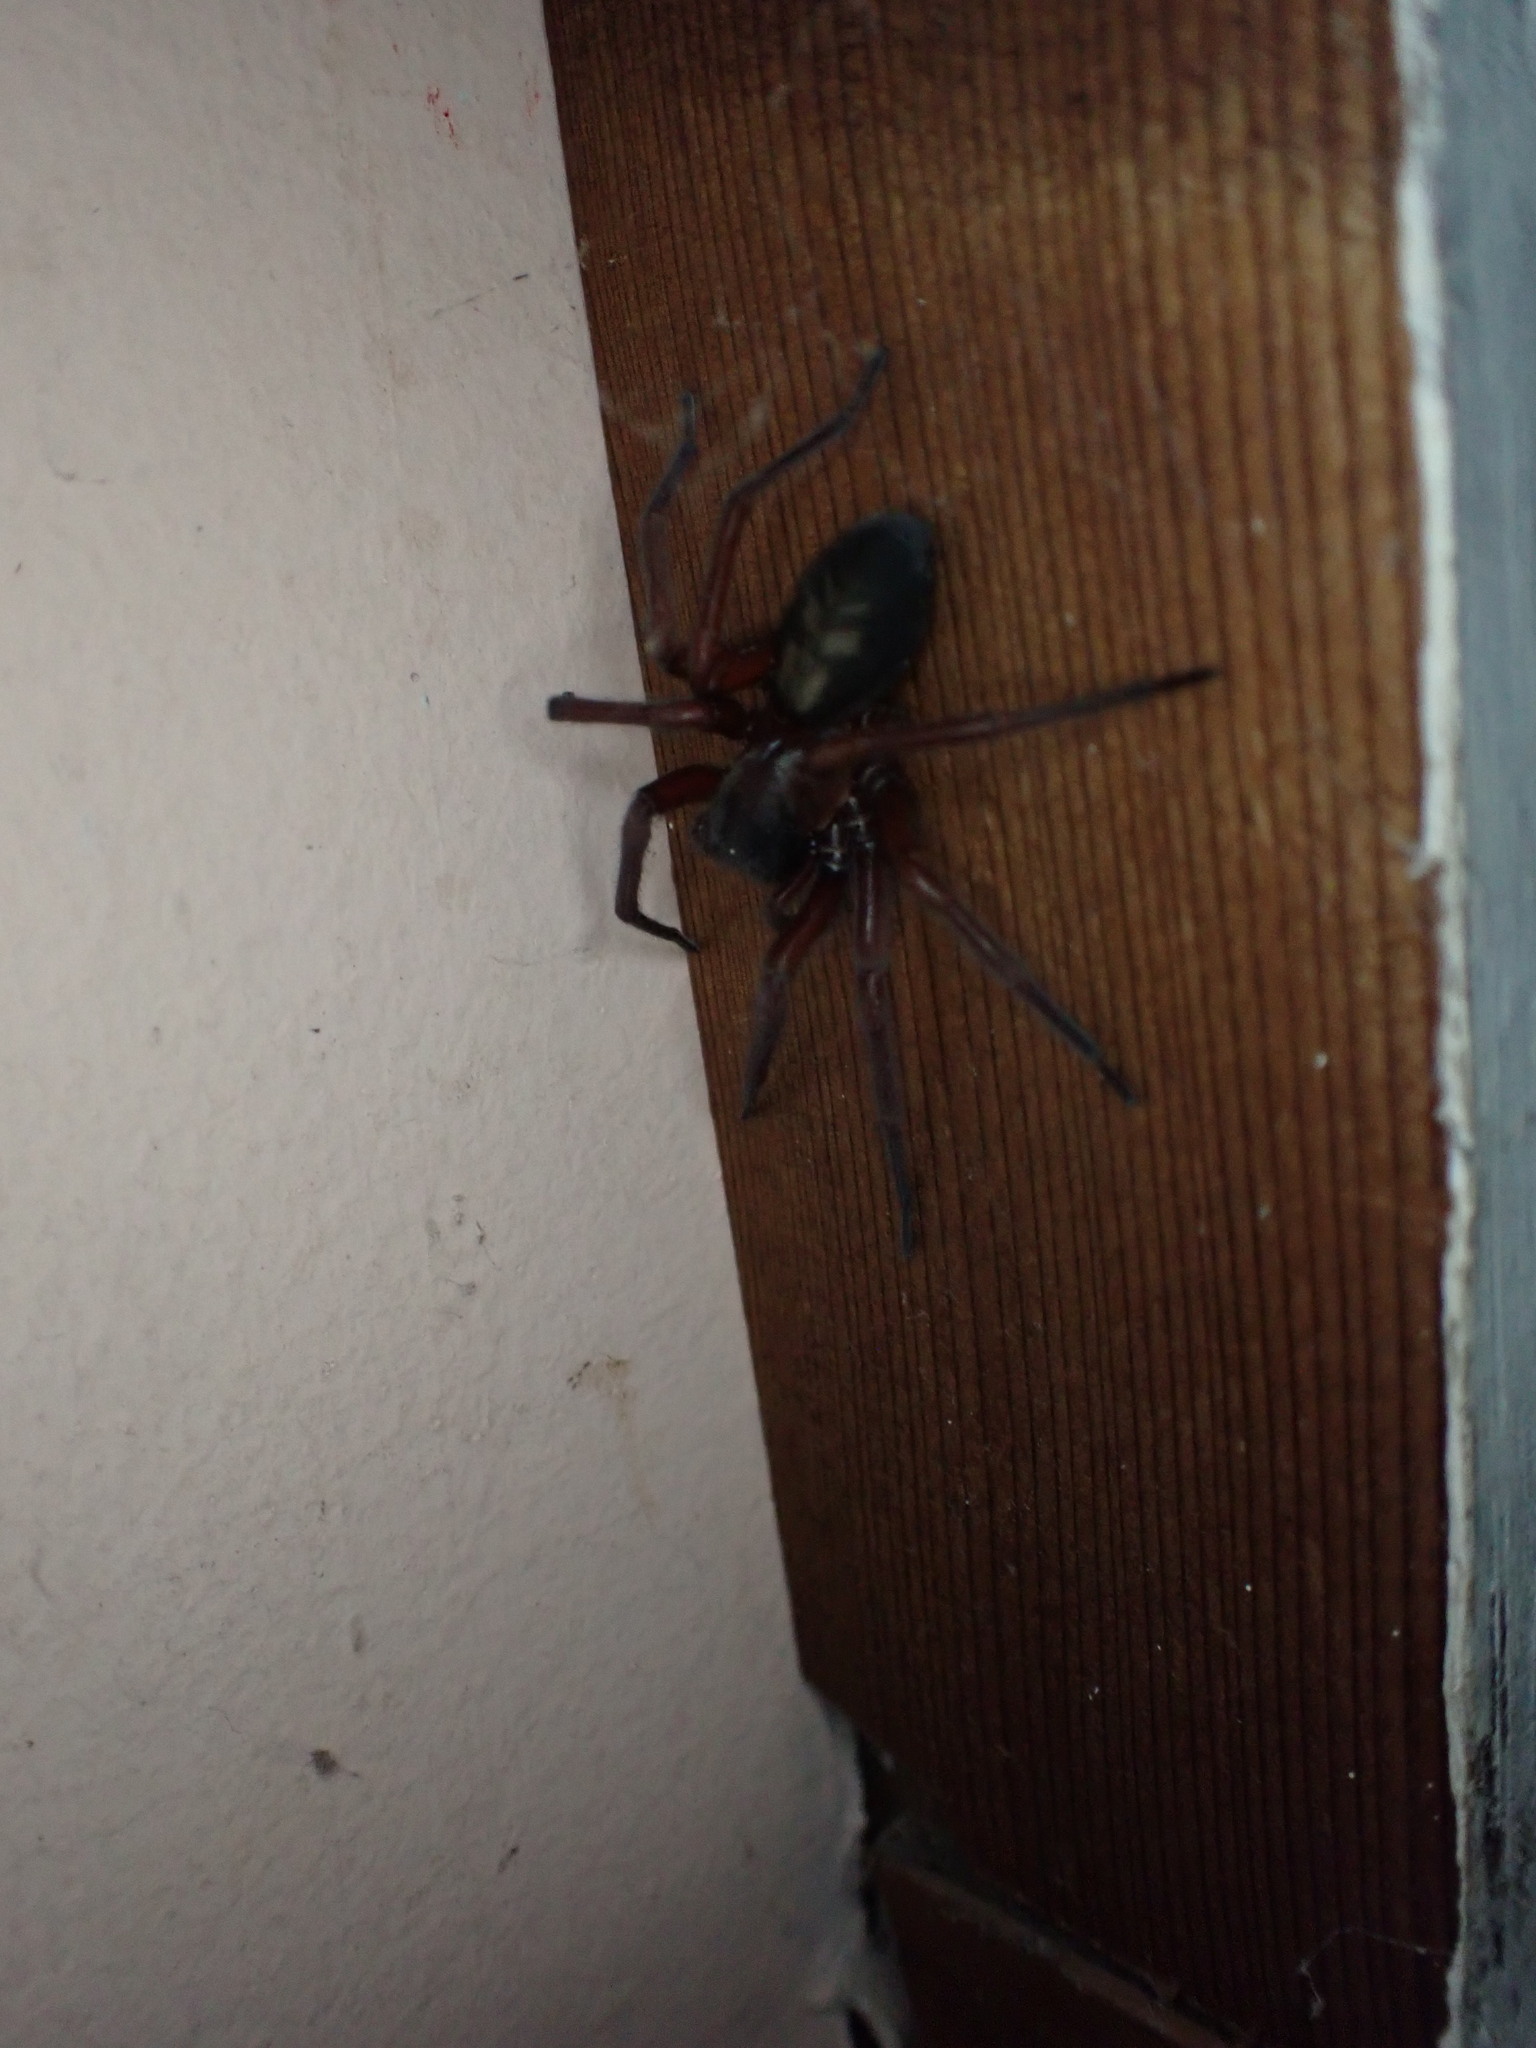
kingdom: Animalia
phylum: Arthropoda
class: Arachnida
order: Araneae
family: Amaurobiidae
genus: Callobius
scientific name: Callobius severus
